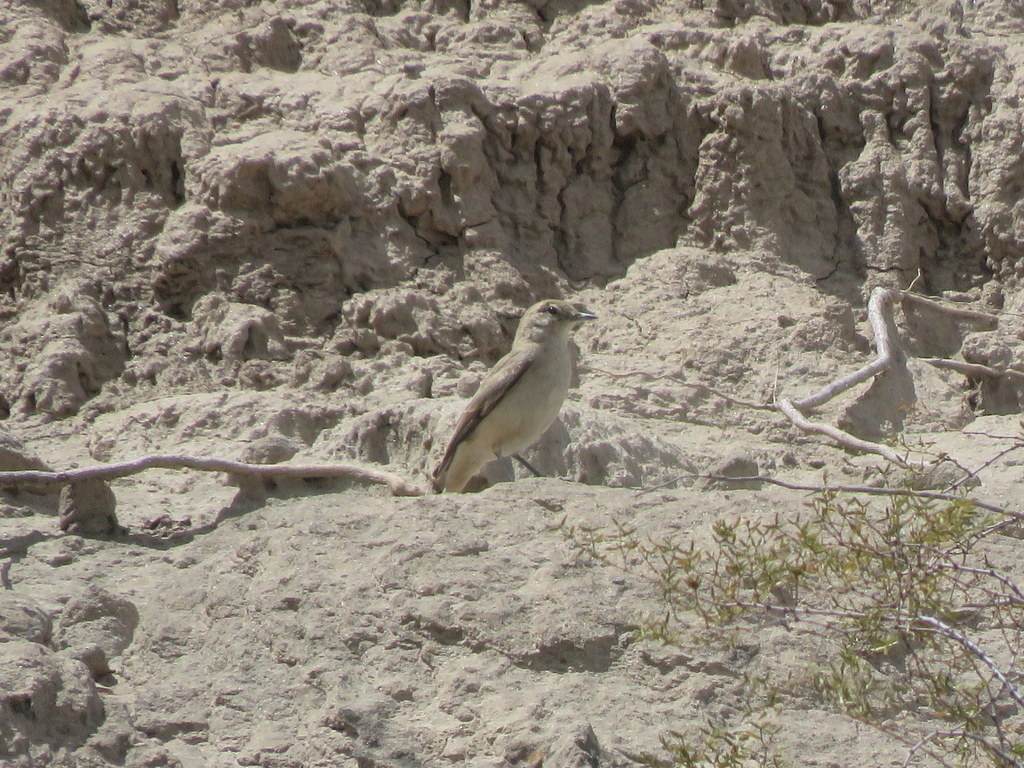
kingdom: Animalia
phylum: Chordata
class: Aves
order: Passeriformes
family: Furnariidae
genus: Geositta
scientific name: Geositta rufipennis
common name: Rufous-banded miner
